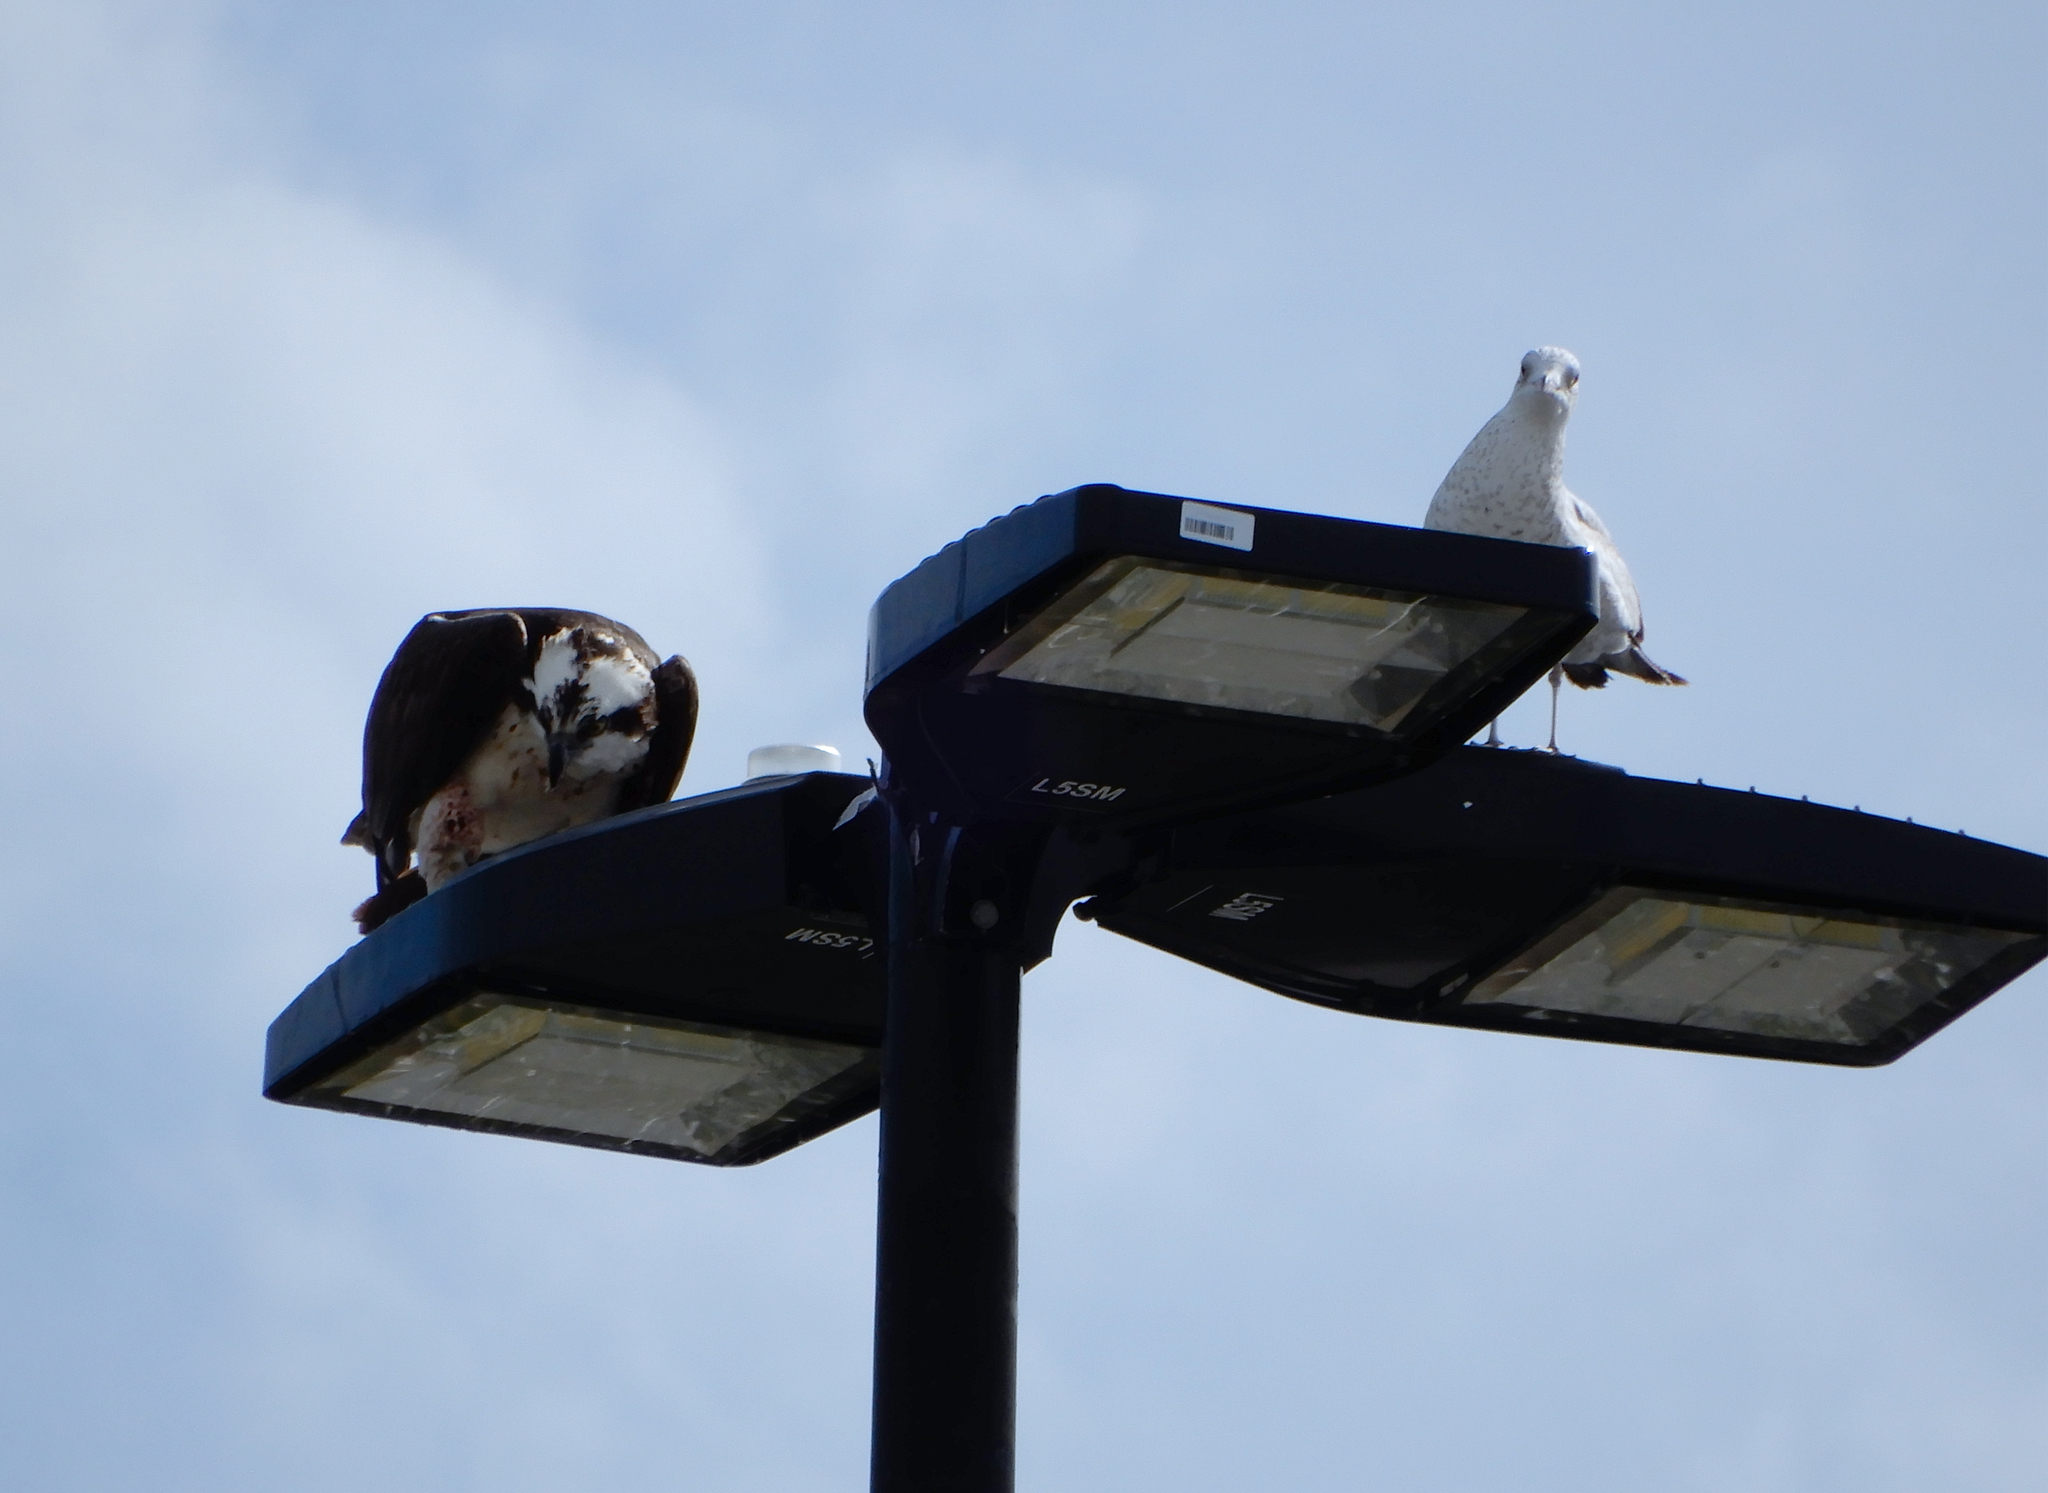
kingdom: Animalia
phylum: Chordata
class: Aves
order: Accipitriformes
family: Pandionidae
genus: Pandion
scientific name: Pandion haliaetus
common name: Osprey
